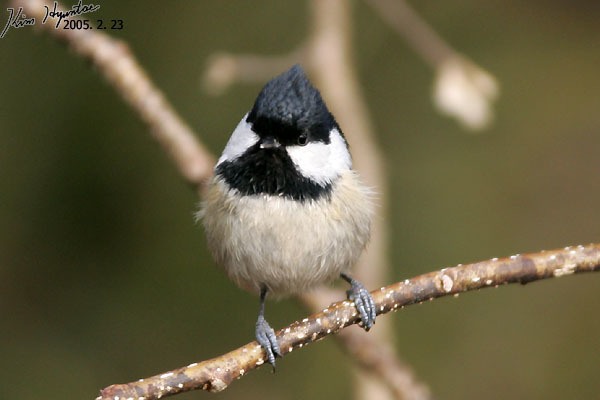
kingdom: Animalia
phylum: Chordata
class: Aves
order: Passeriformes
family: Paridae
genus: Periparus
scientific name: Periparus ater
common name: Coal tit
